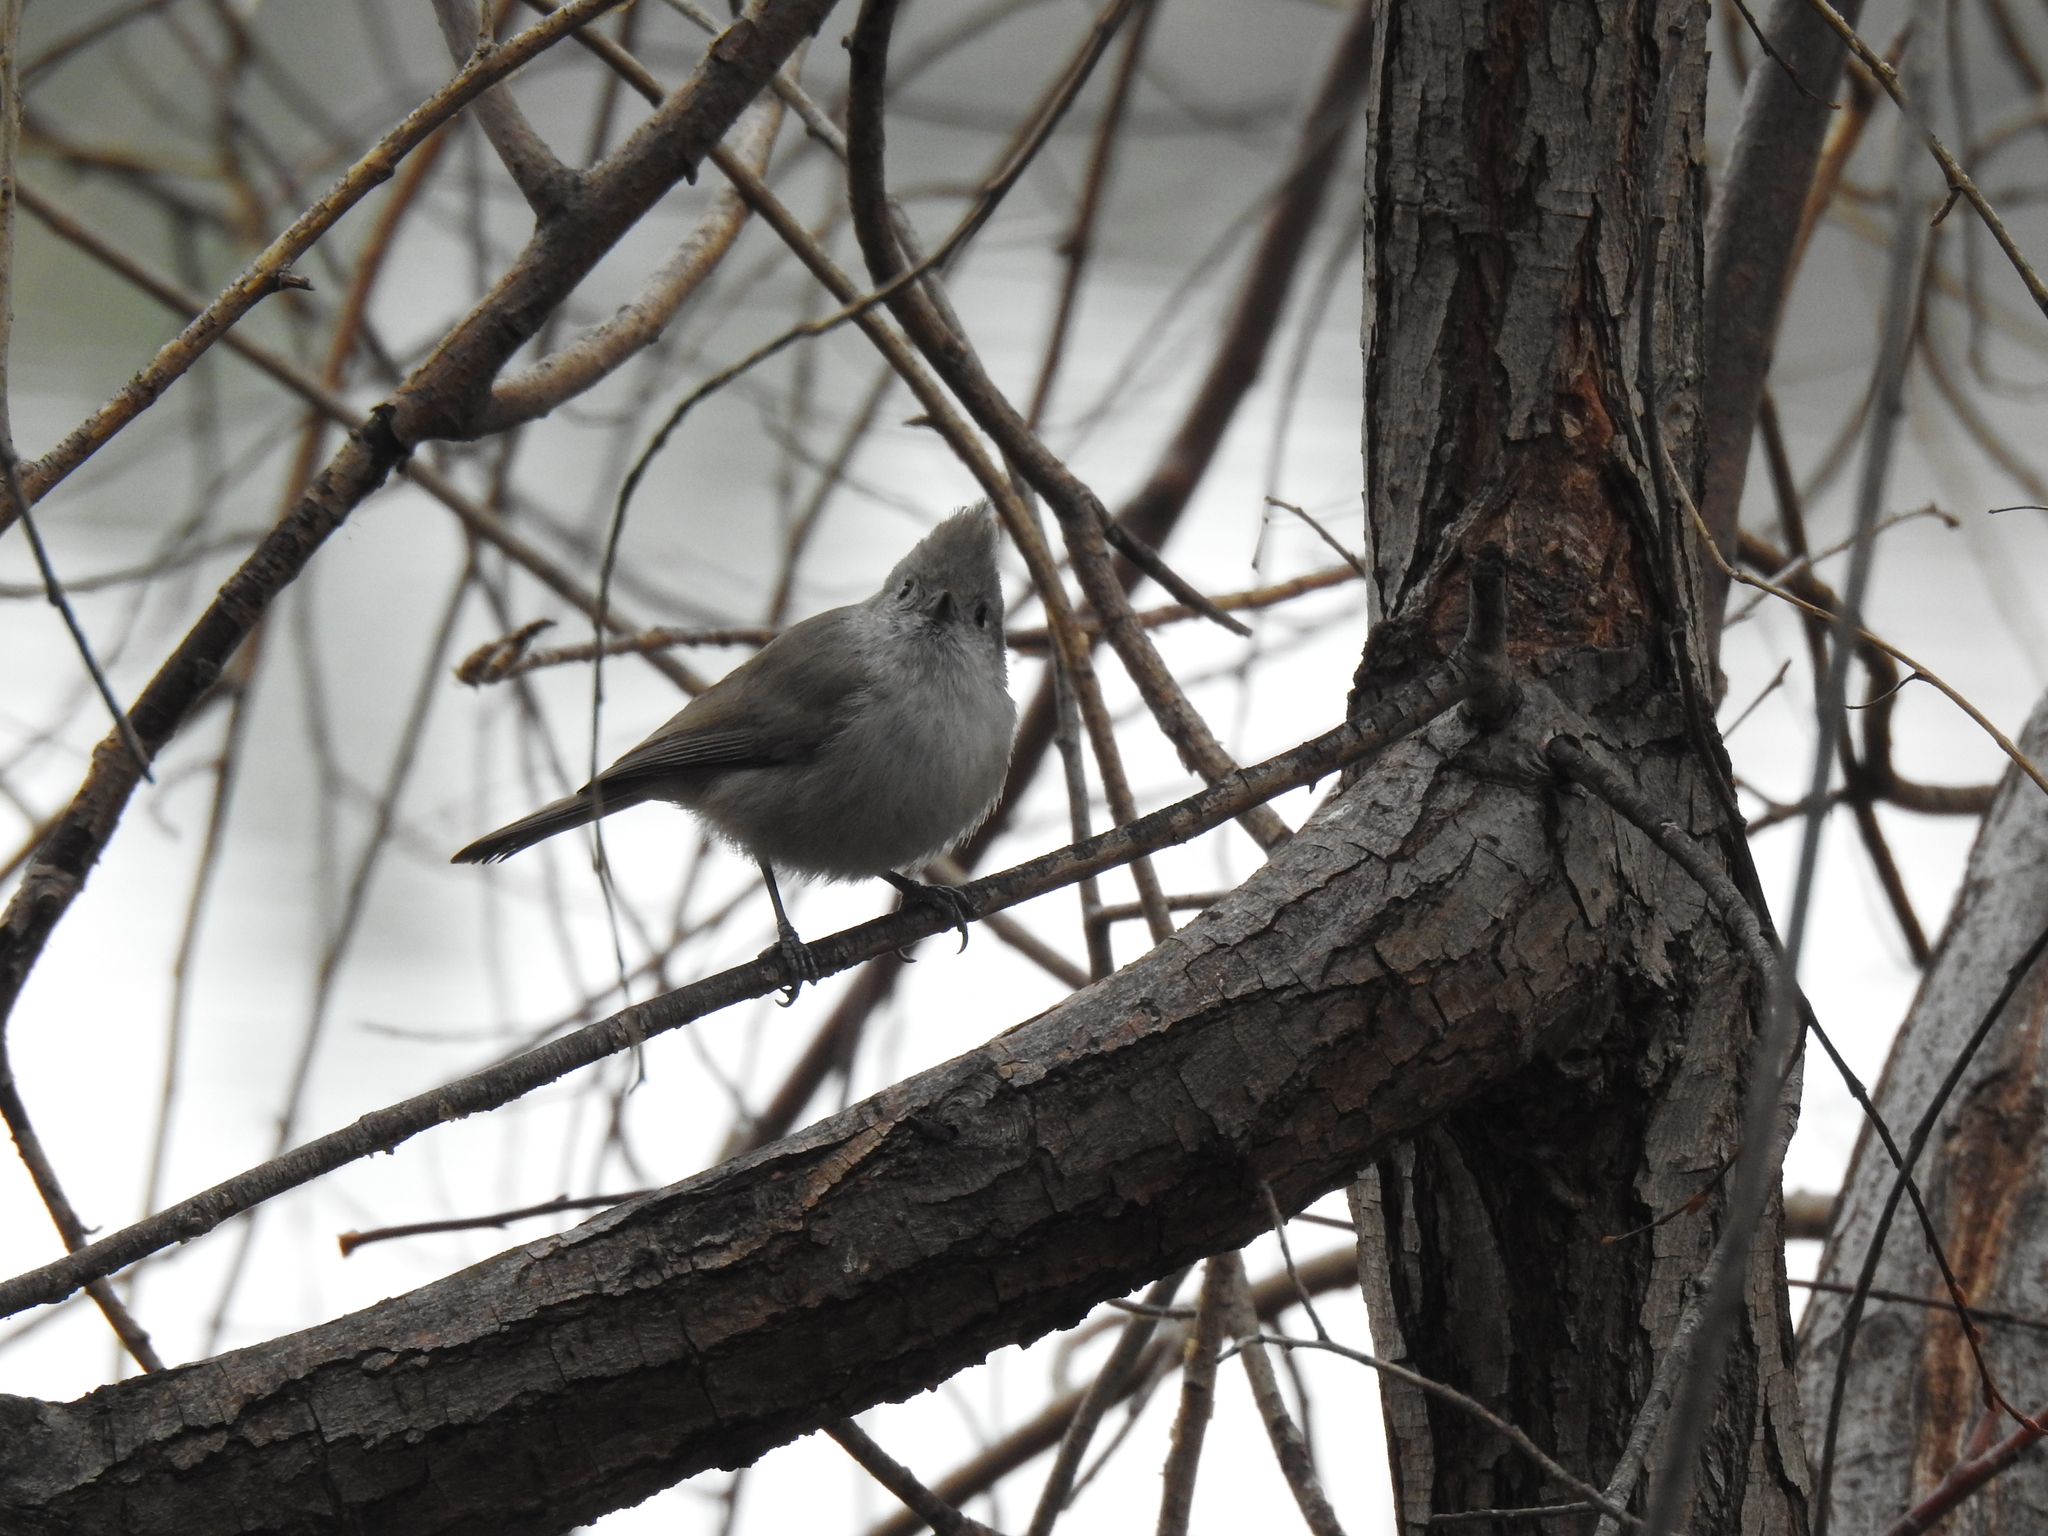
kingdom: Animalia
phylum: Chordata
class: Aves
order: Passeriformes
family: Paridae
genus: Baeolophus
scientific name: Baeolophus inornatus
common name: Oak titmouse
